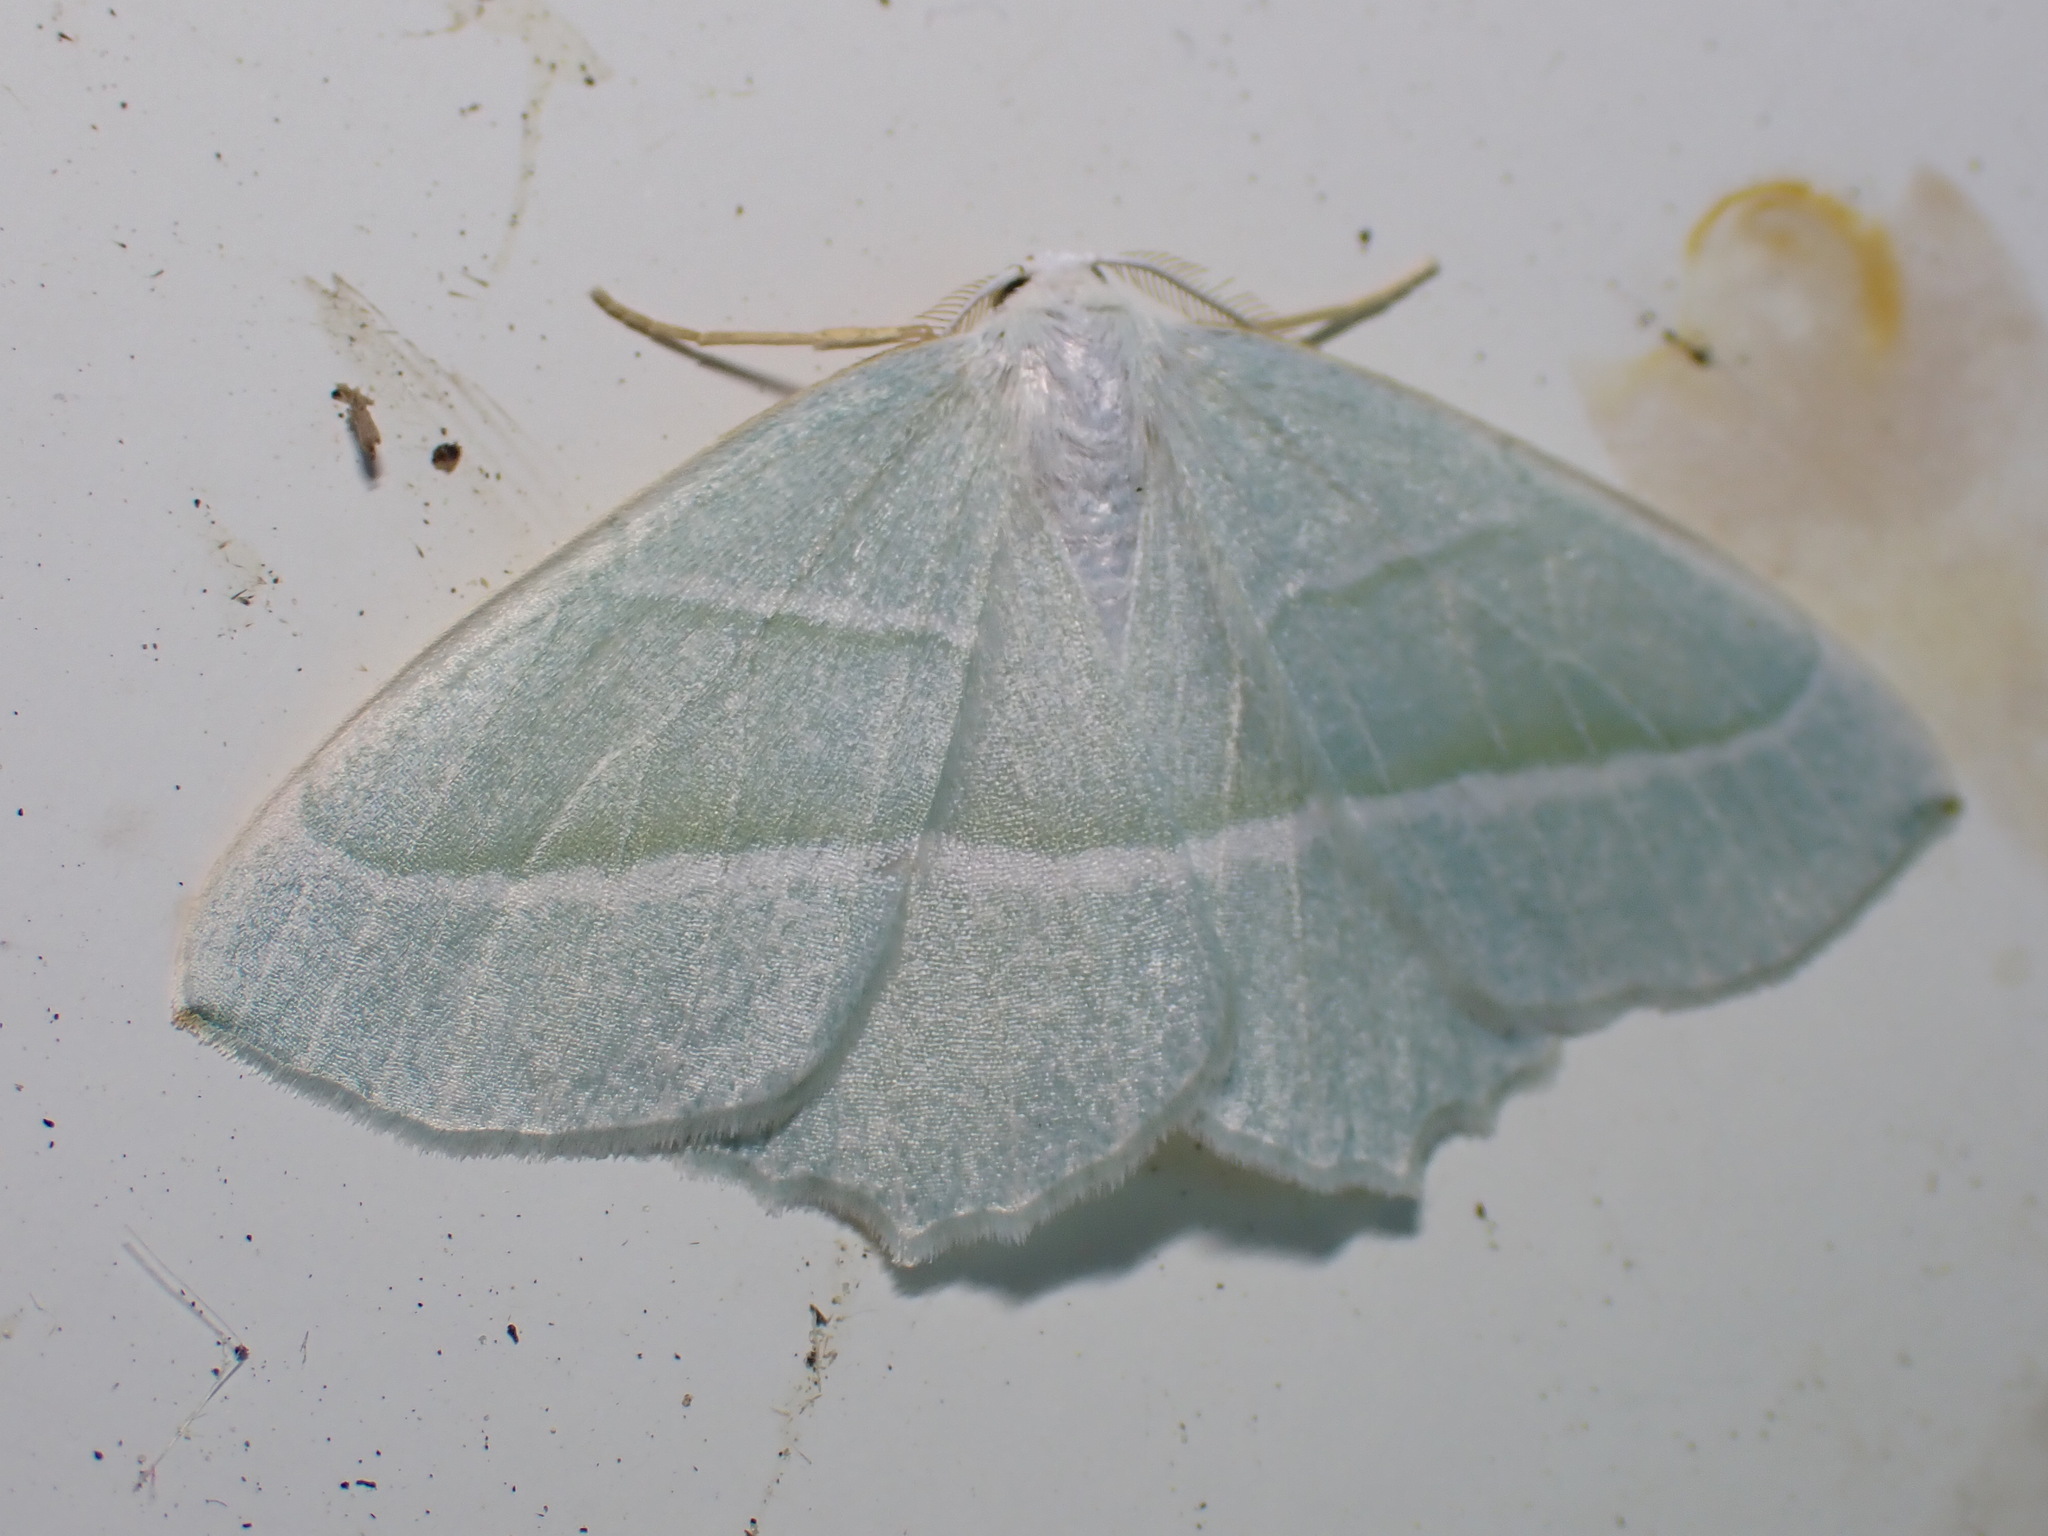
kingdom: Animalia
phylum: Arthropoda
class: Insecta
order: Lepidoptera
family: Geometridae
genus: Campaea
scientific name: Campaea margaritaria
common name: Light emerald
